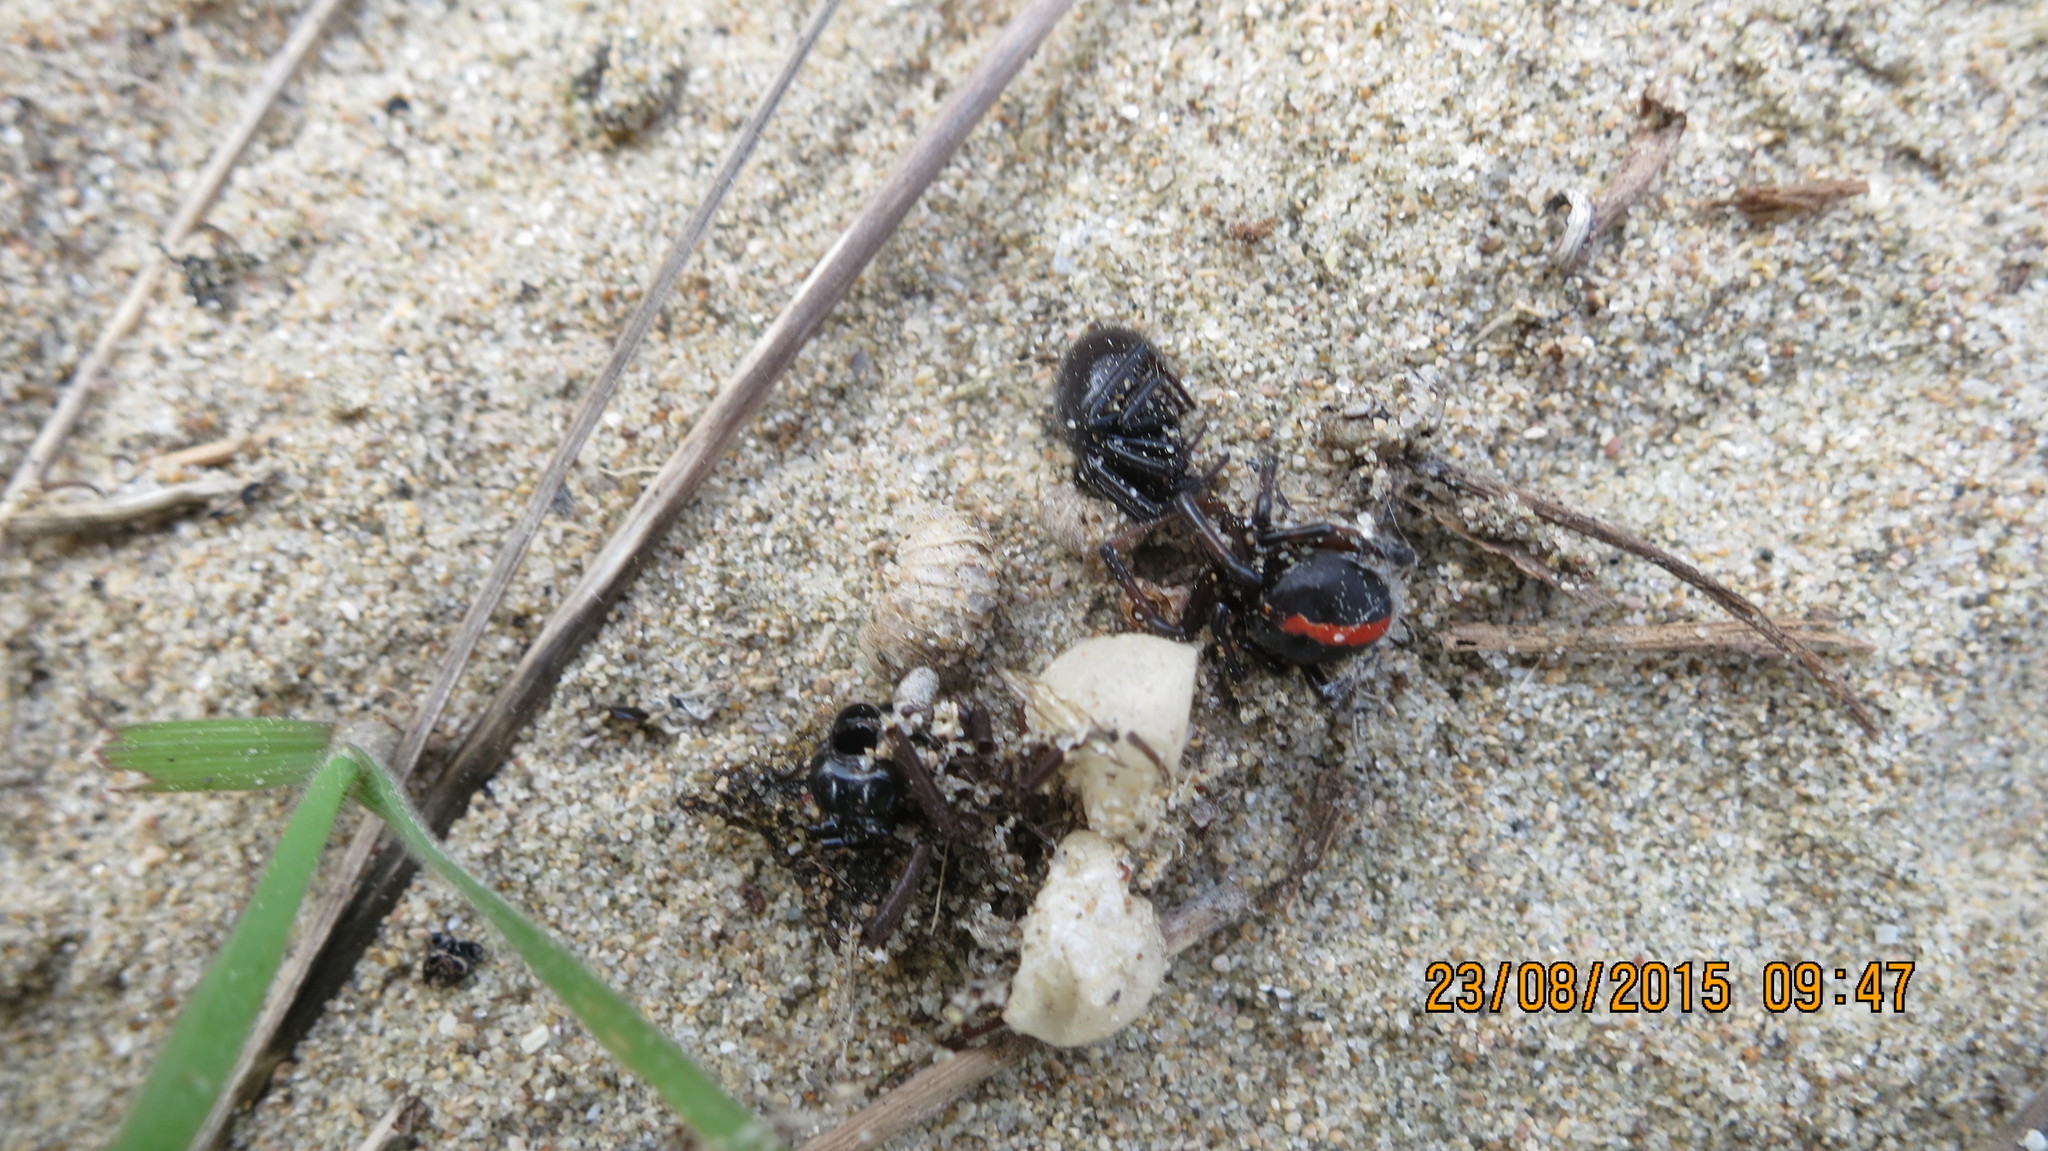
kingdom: Animalia
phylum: Arthropoda
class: Arachnida
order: Araneae
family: Theridiidae
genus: Steatoda
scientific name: Steatoda capensis
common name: Cobweb weaver
